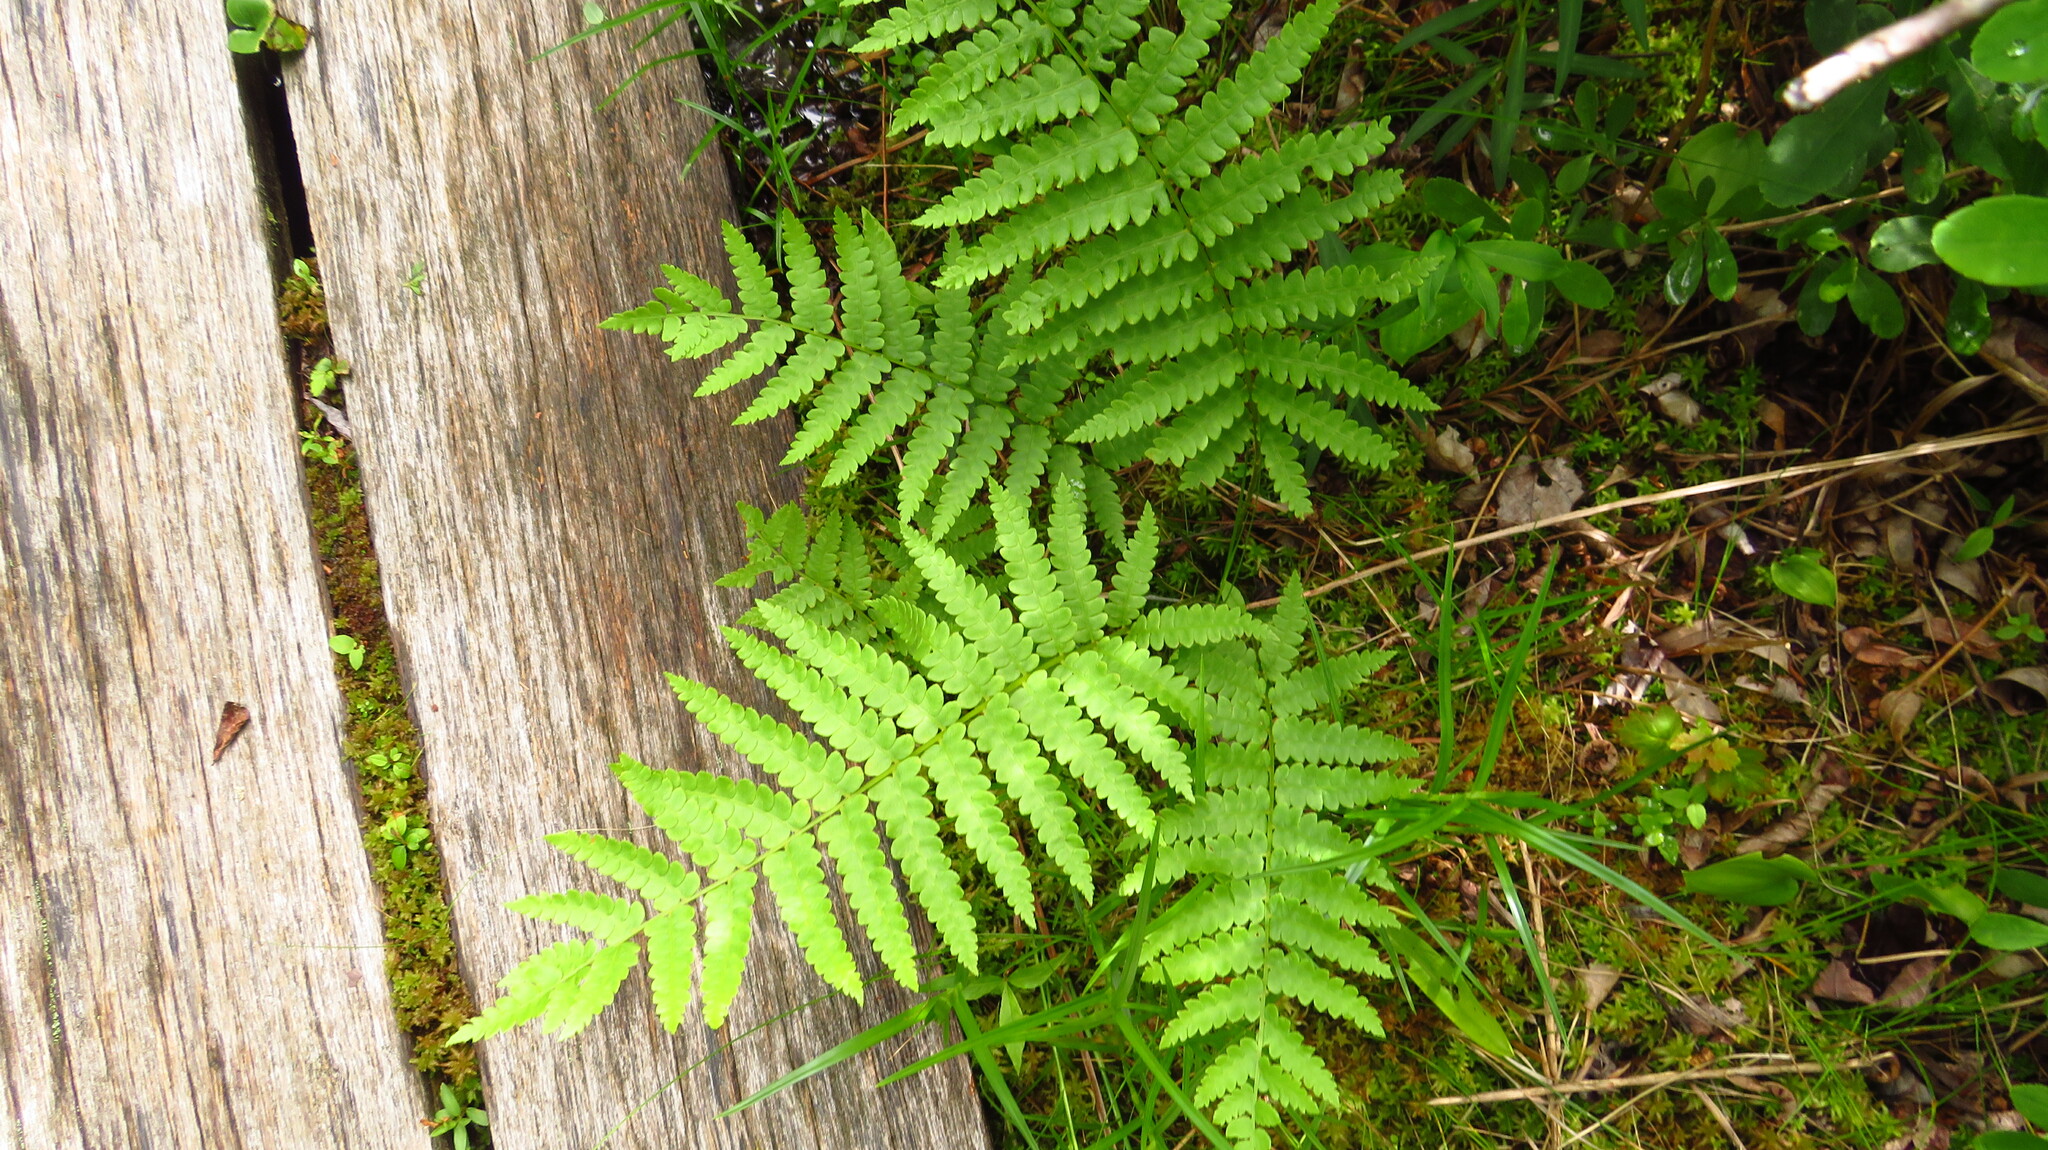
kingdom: Plantae
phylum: Tracheophyta
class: Polypodiopsida
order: Osmundales
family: Osmundaceae
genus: Osmundastrum
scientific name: Osmundastrum cinnamomeum
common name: Cinnamon fern
